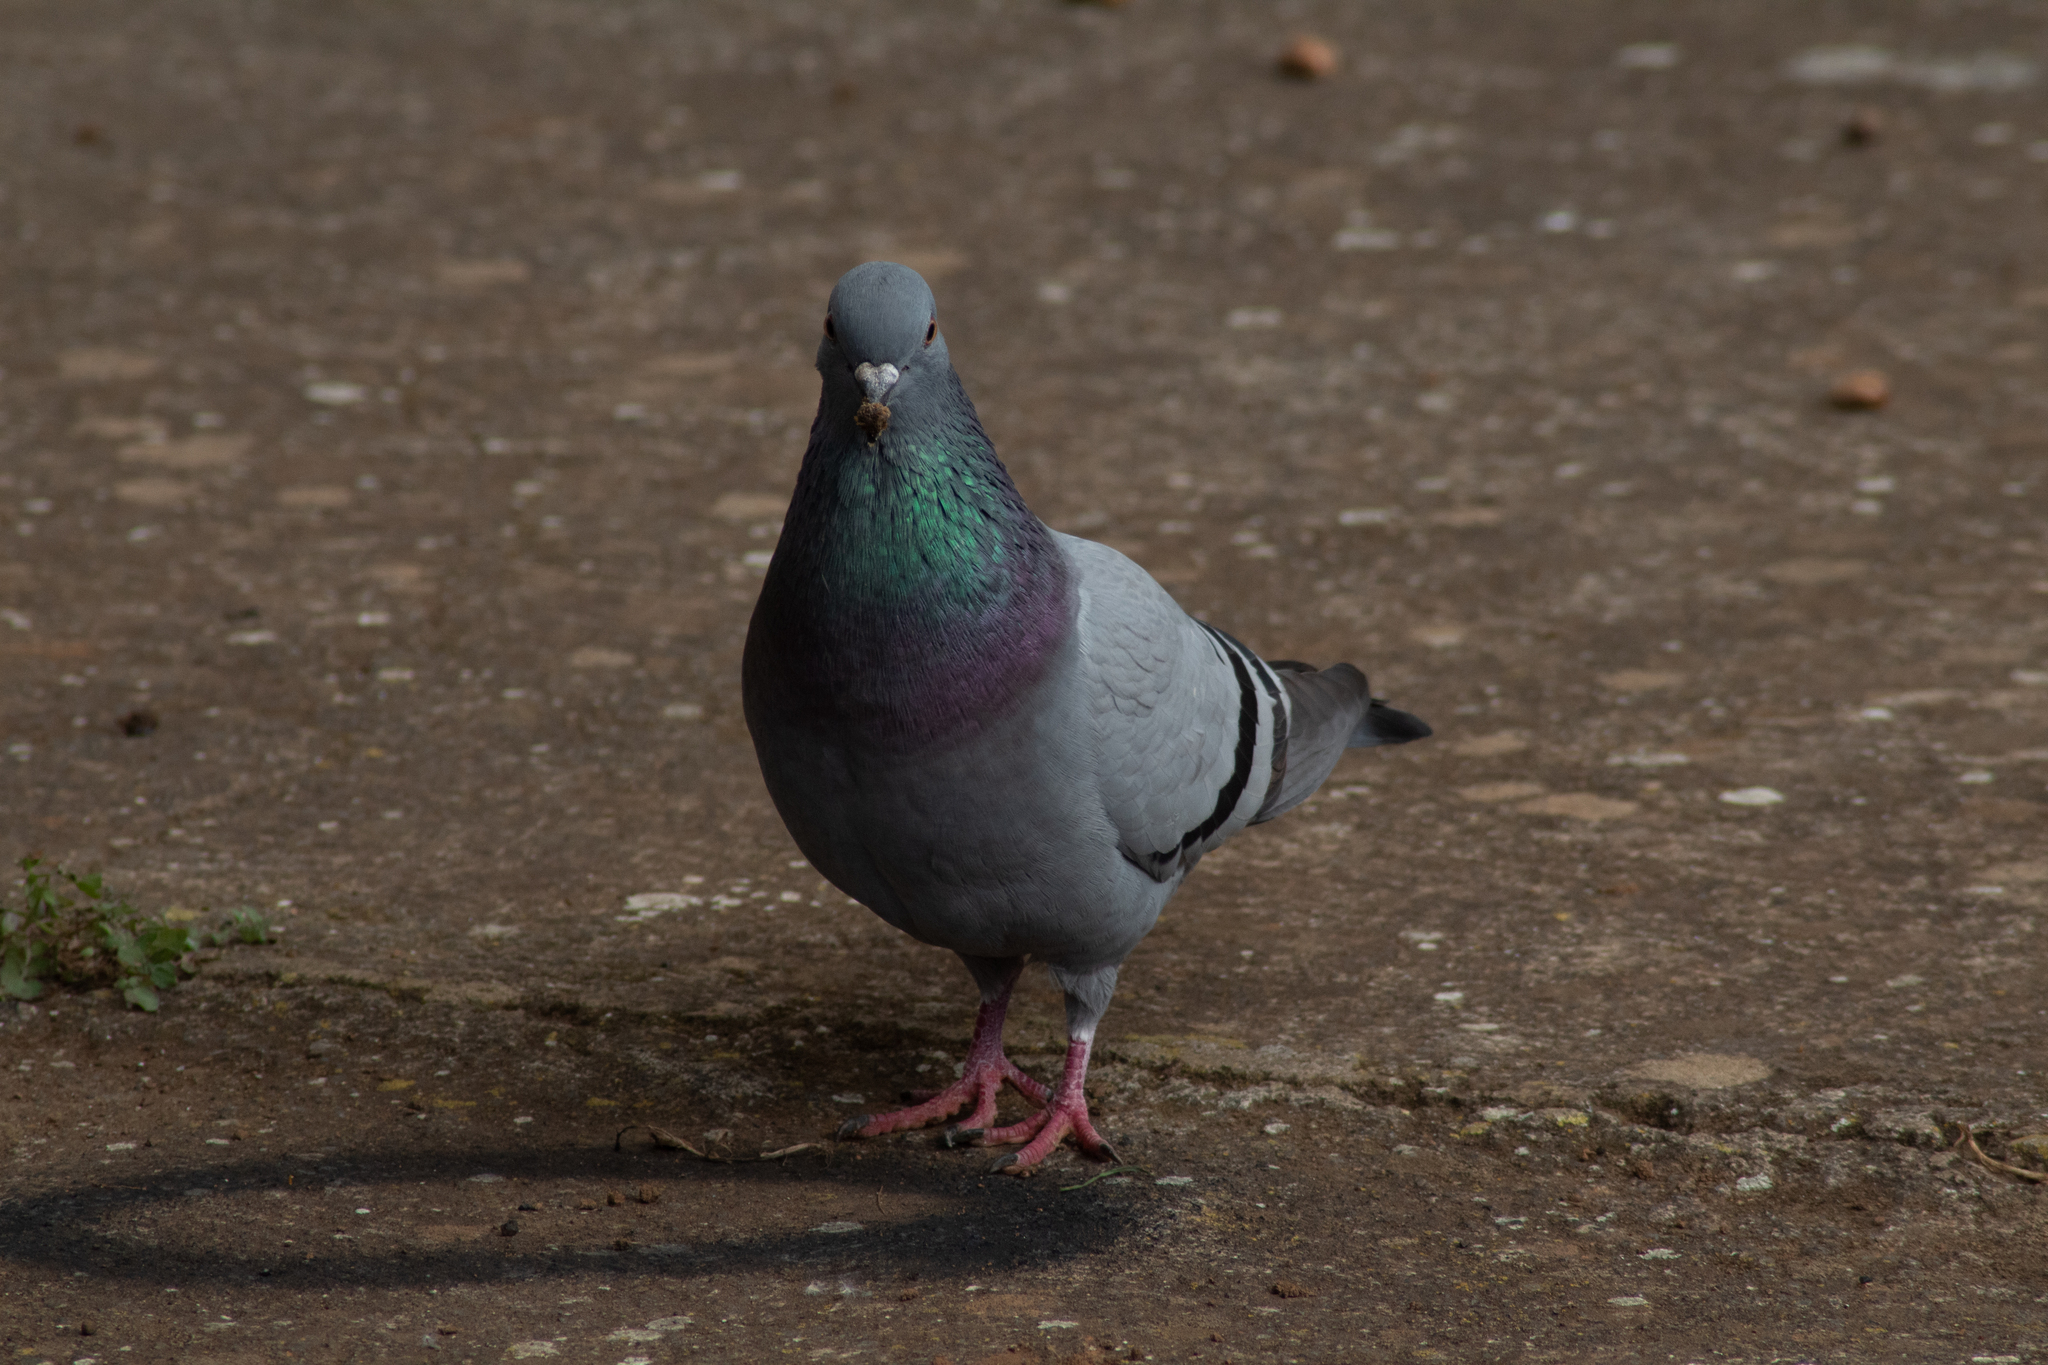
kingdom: Animalia
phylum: Chordata
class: Aves
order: Columbiformes
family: Columbidae
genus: Columba
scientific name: Columba livia
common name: Rock pigeon
